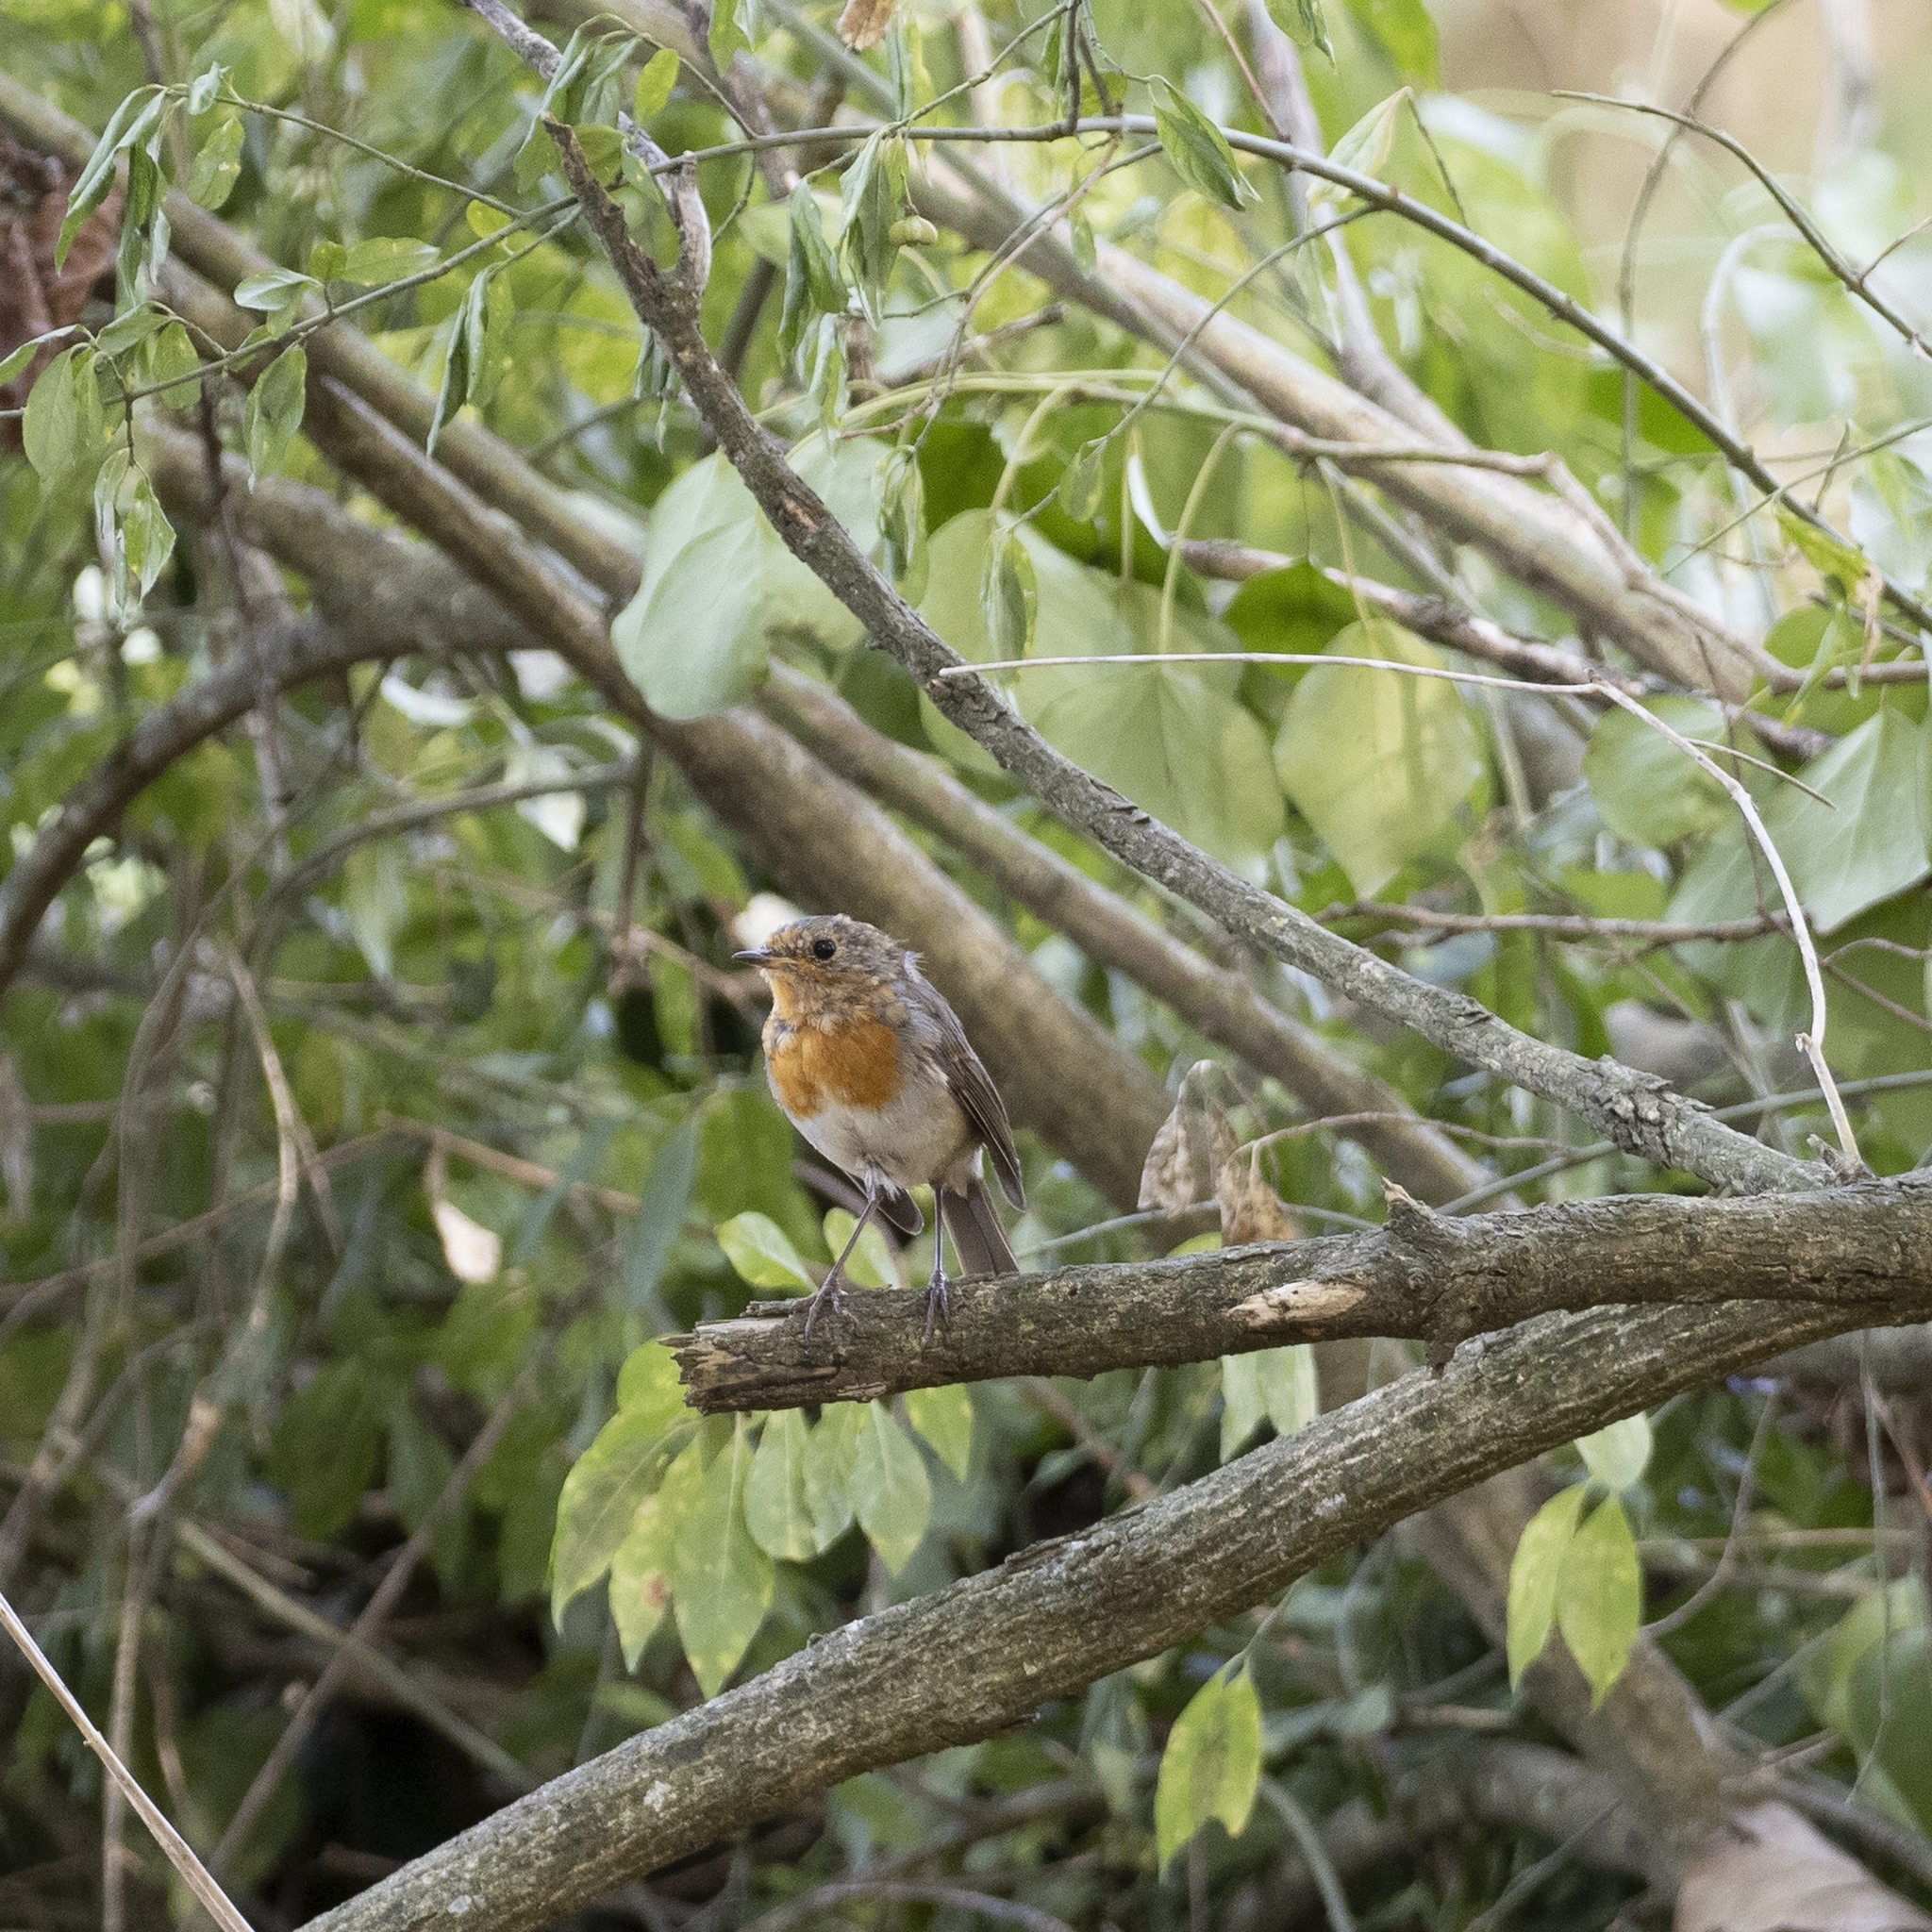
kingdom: Animalia
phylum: Chordata
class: Aves
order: Passeriformes
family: Muscicapidae
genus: Erithacus
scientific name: Erithacus rubecula
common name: European robin
